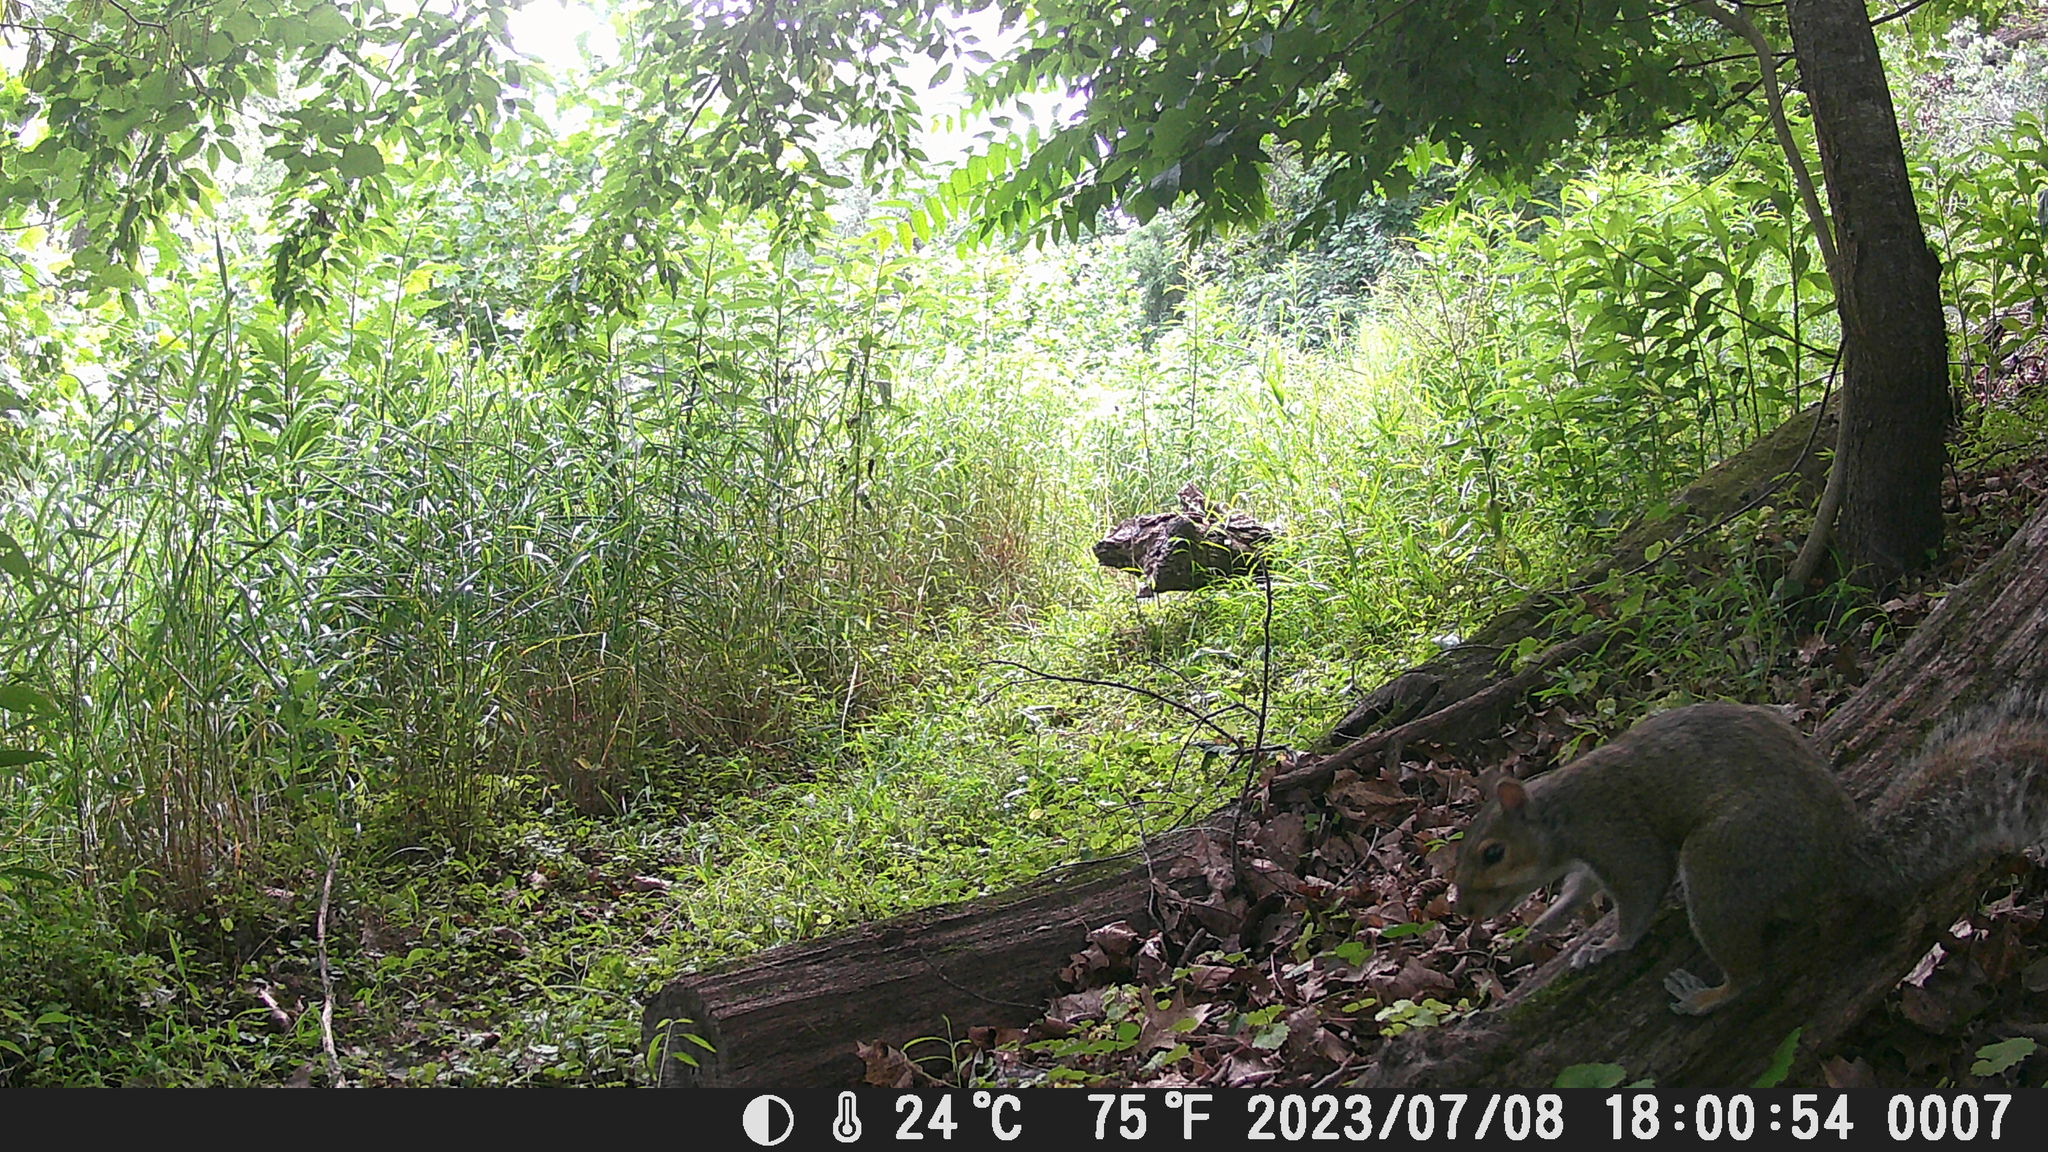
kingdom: Animalia
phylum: Chordata
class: Mammalia
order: Rodentia
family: Sciuridae
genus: Sciurus
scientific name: Sciurus carolinensis
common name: Eastern gray squirrel
